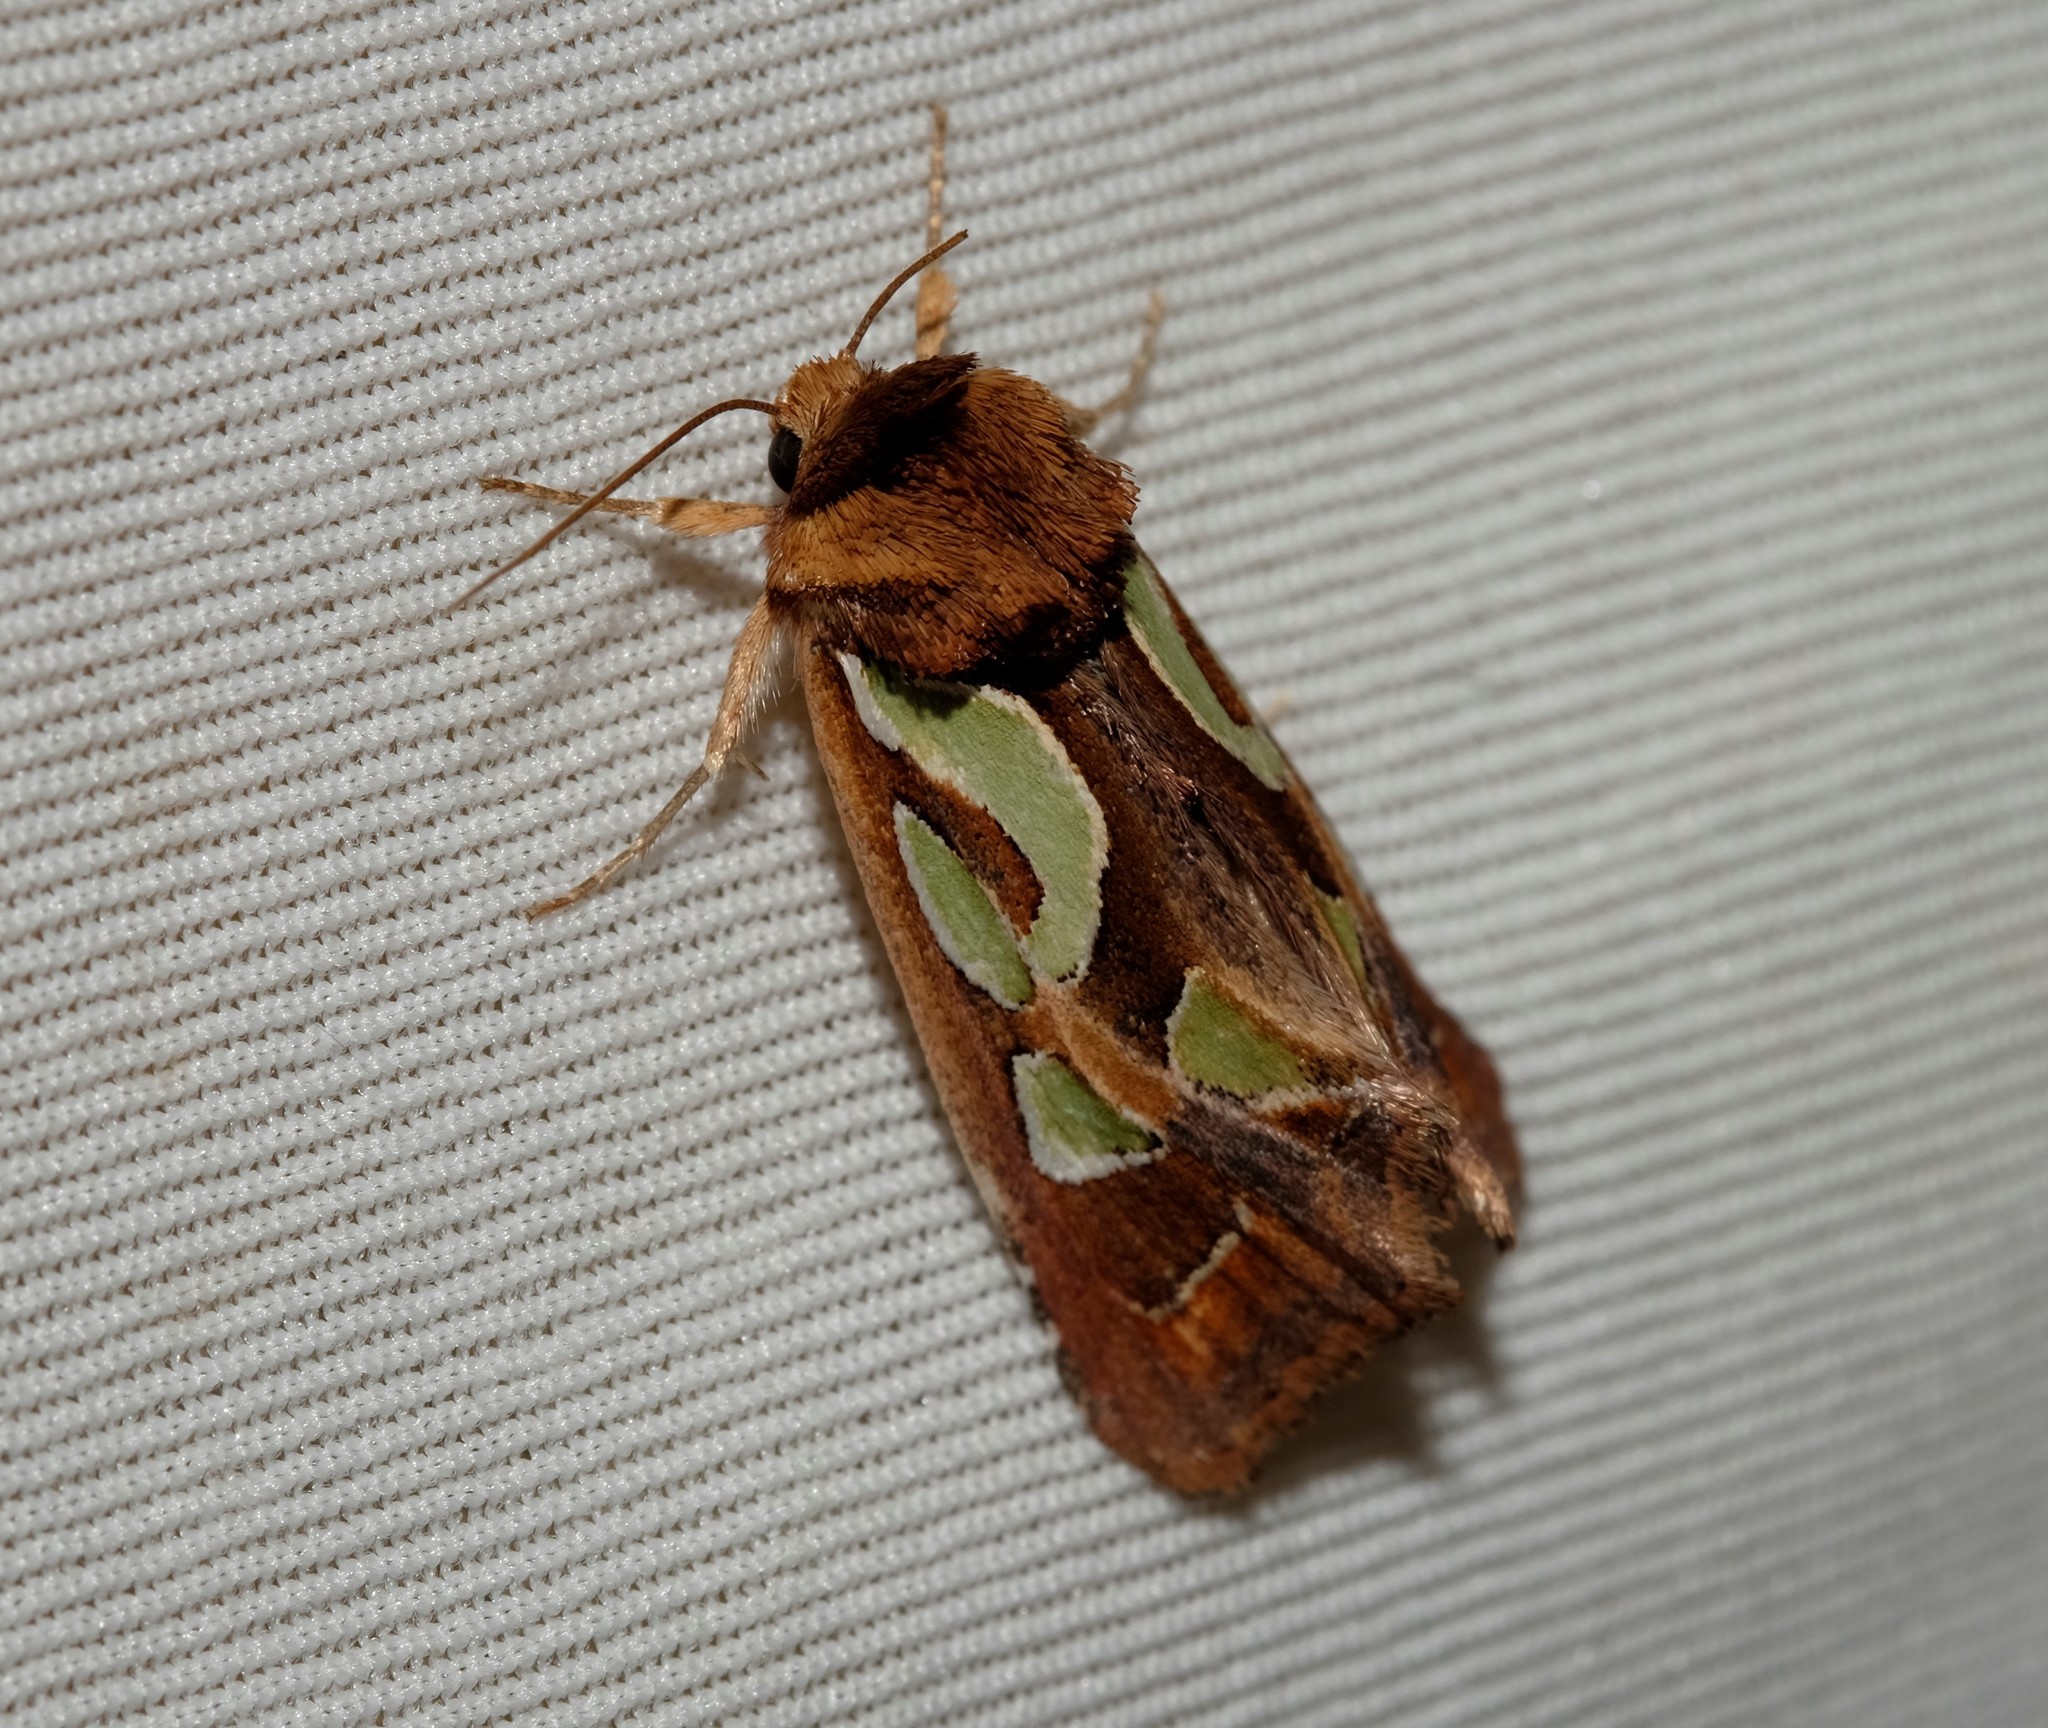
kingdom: Animalia
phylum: Arthropoda
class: Insecta
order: Lepidoptera
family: Noctuidae
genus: Cosmodes
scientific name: Cosmodes elegans
